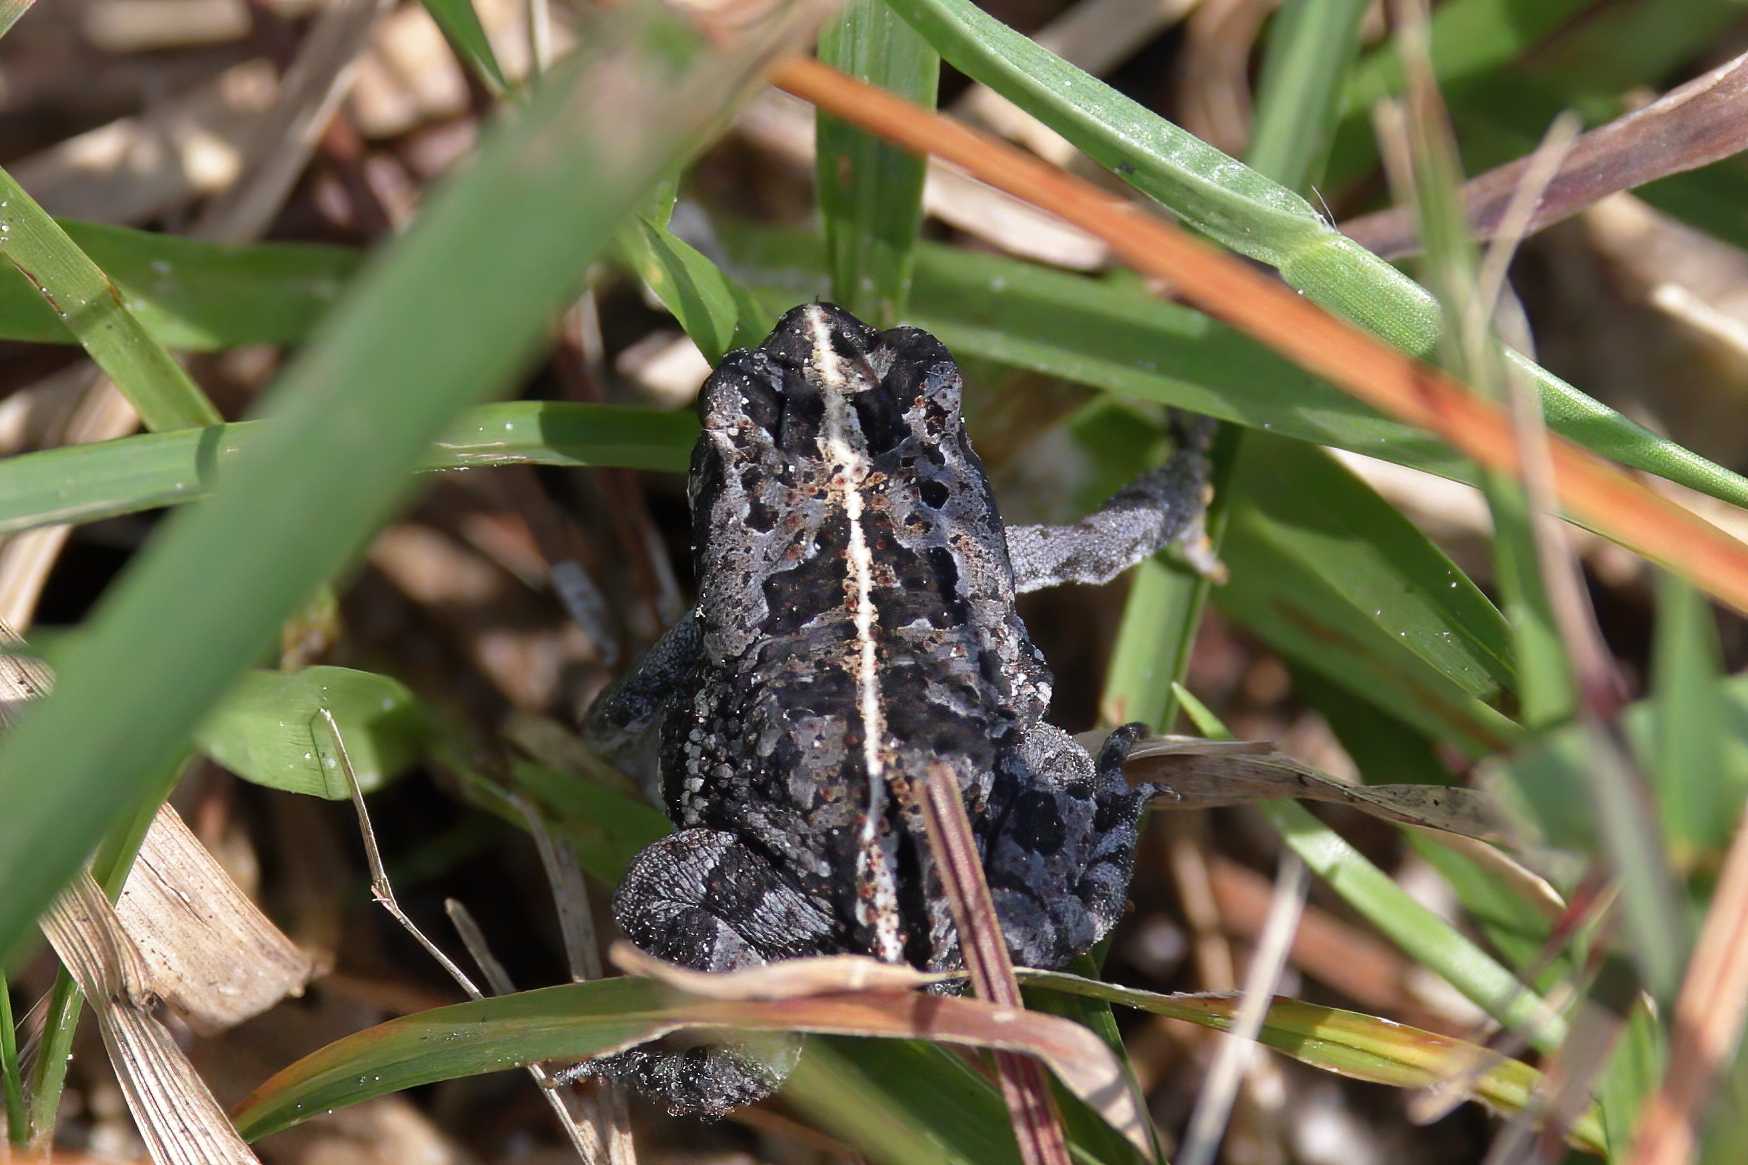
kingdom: Animalia
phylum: Chordata
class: Amphibia
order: Anura
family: Bufonidae
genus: Anaxyrus
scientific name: Anaxyrus quercicus
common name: Oak toad
